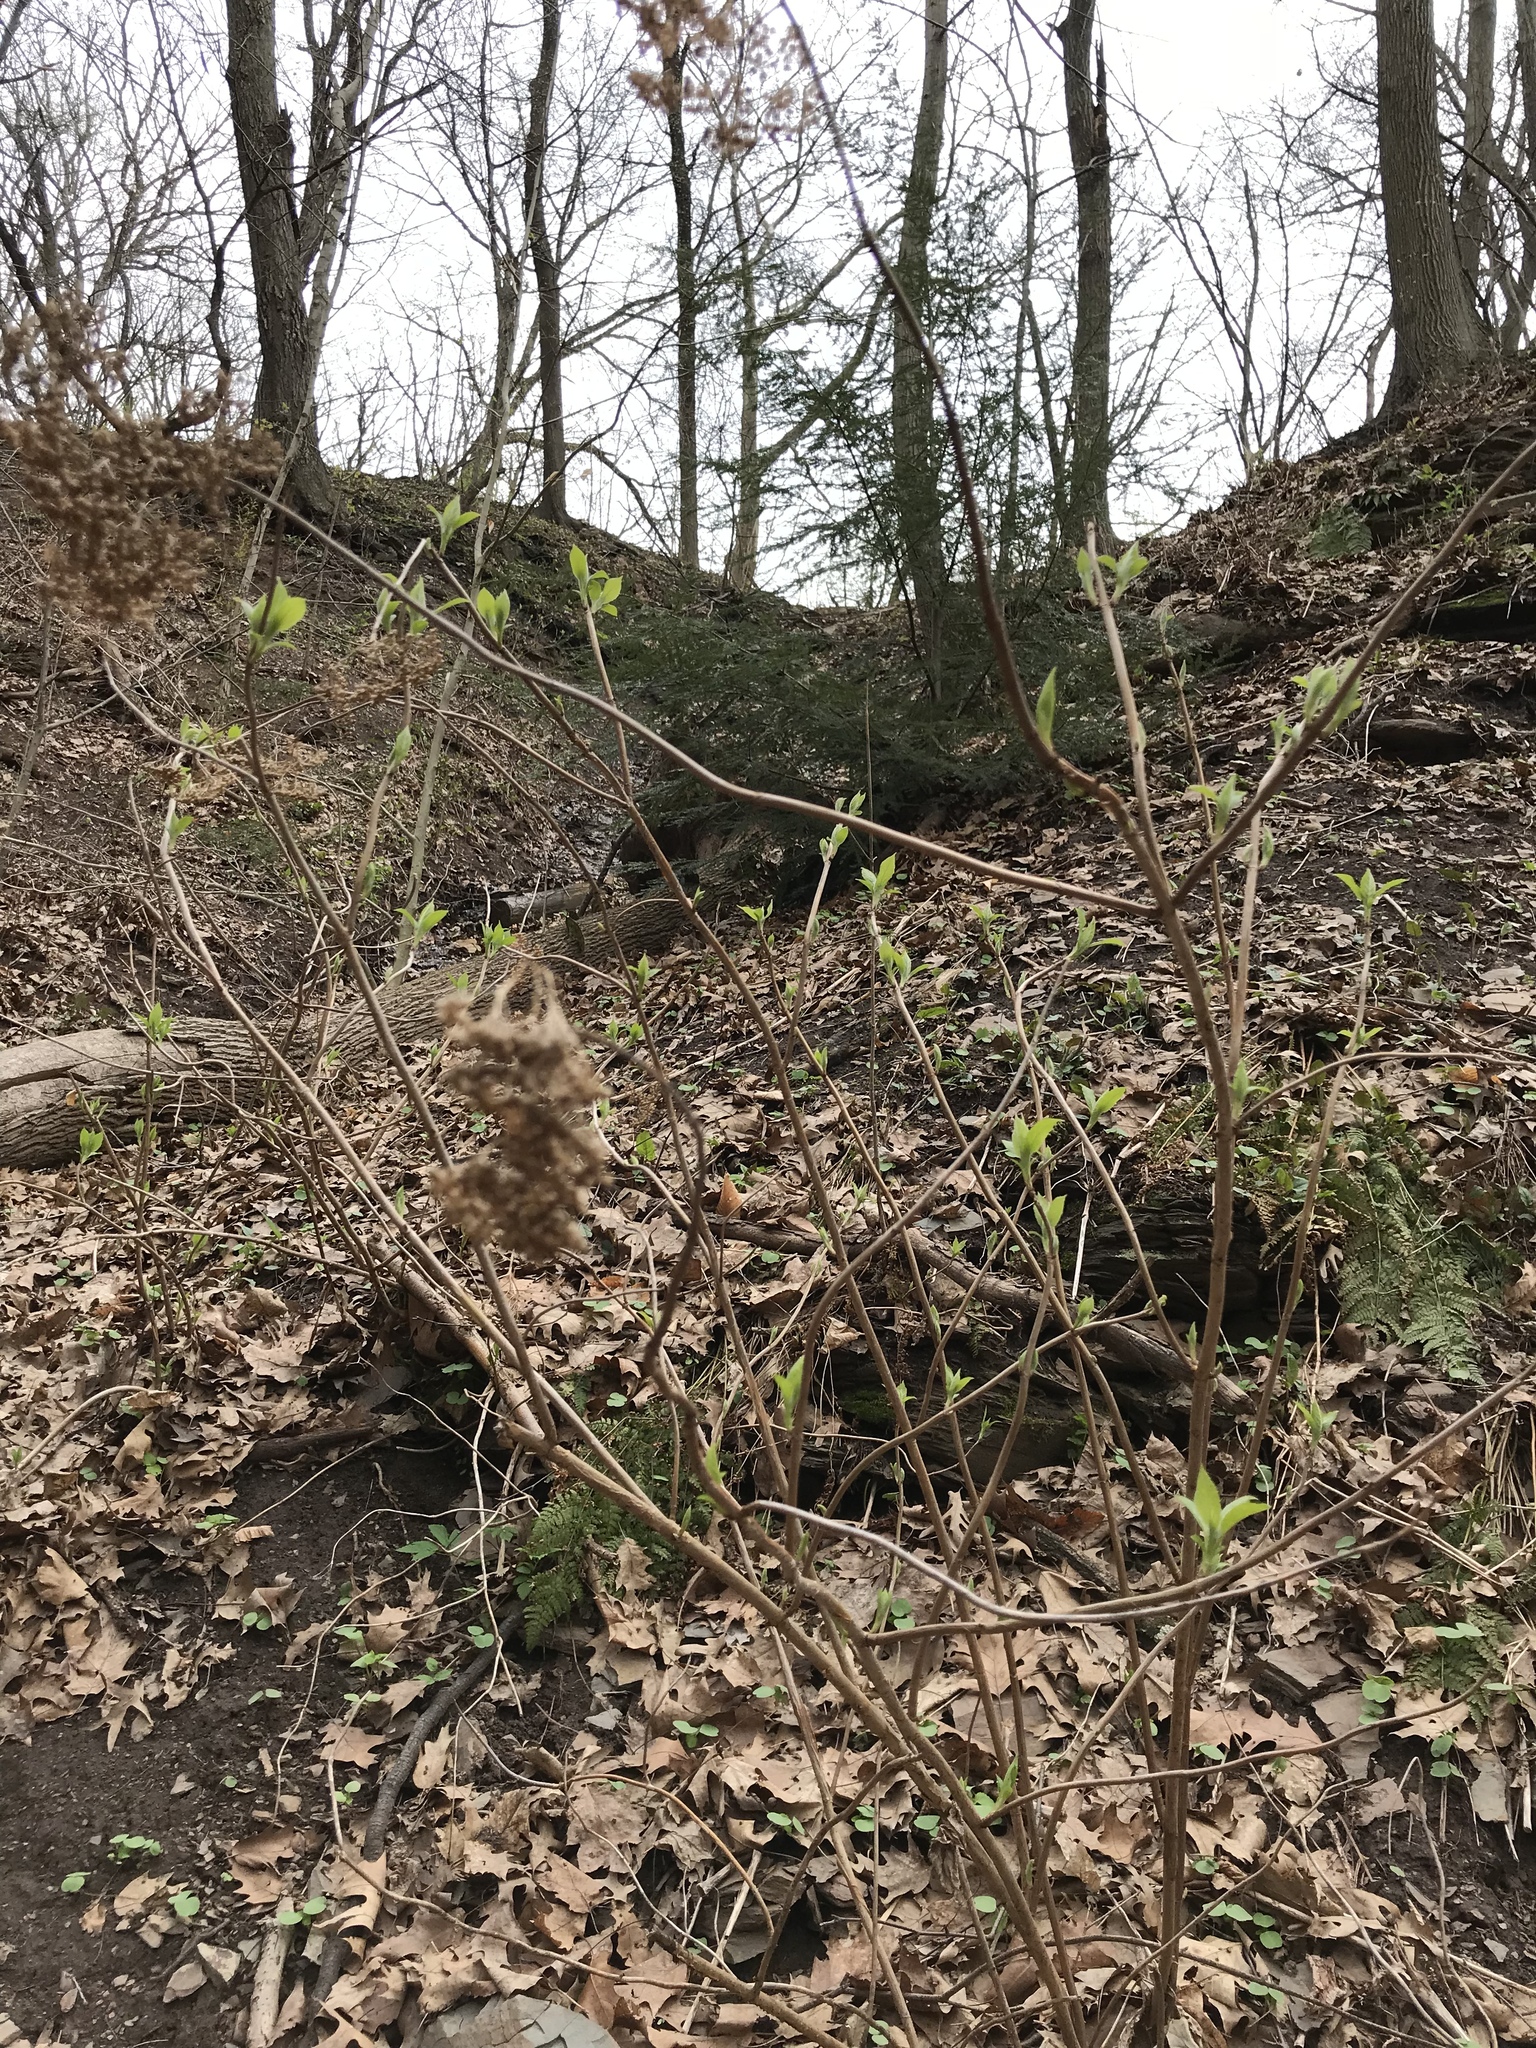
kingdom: Plantae
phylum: Tracheophyta
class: Magnoliopsida
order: Cornales
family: Hydrangeaceae
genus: Hydrangea
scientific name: Hydrangea arborescens
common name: Sevenbark
